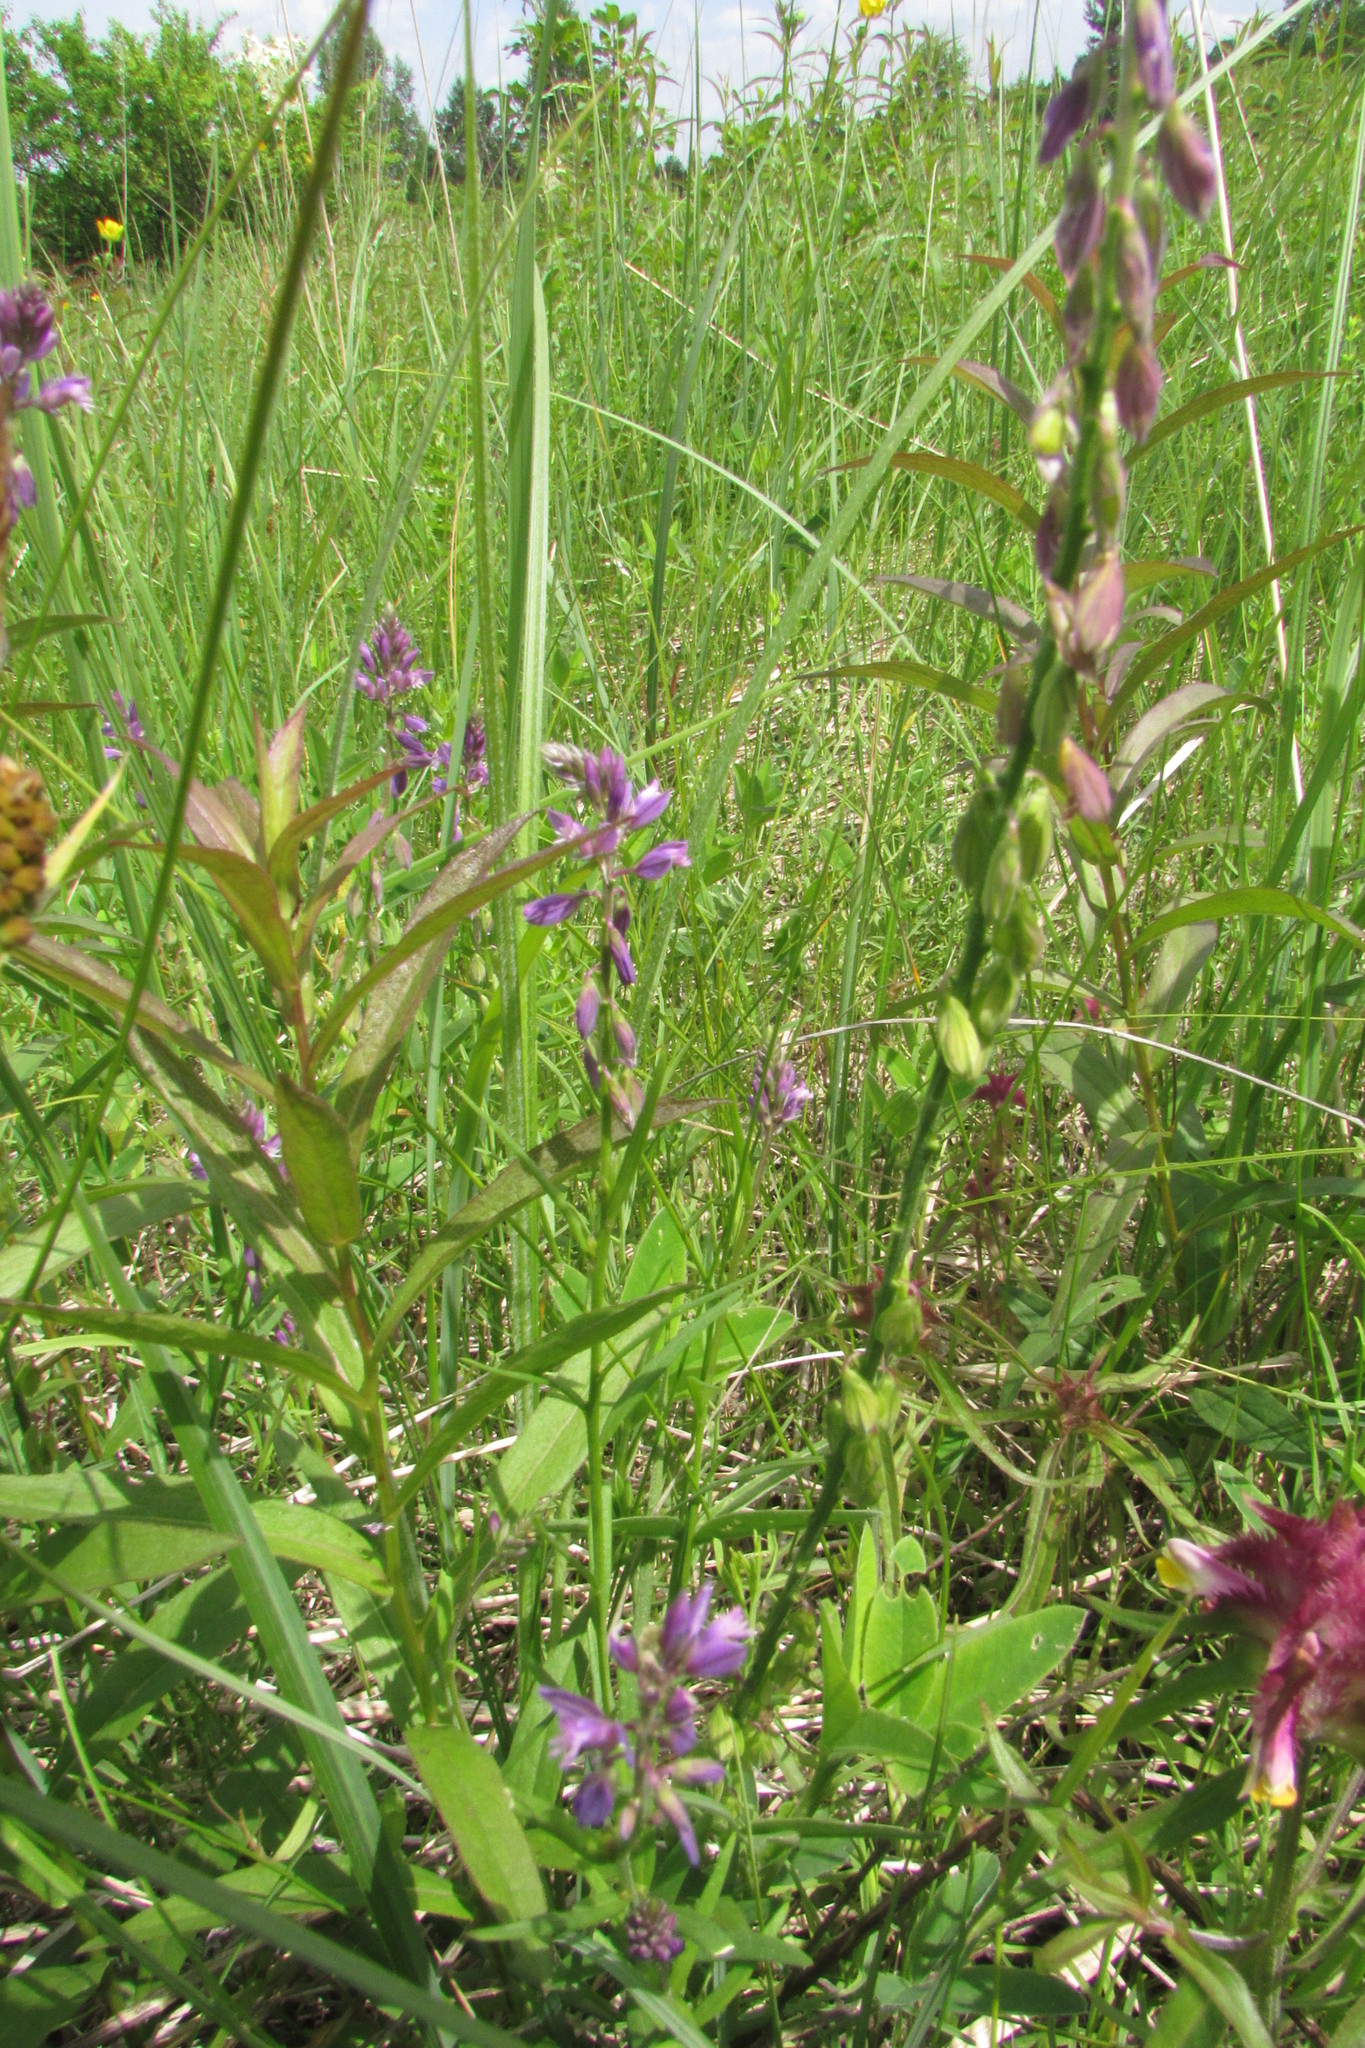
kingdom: Plantae
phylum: Tracheophyta
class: Magnoliopsida
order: Fabales
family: Polygalaceae
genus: Polygala
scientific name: Polygala comosa
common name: Tufted milkwort
